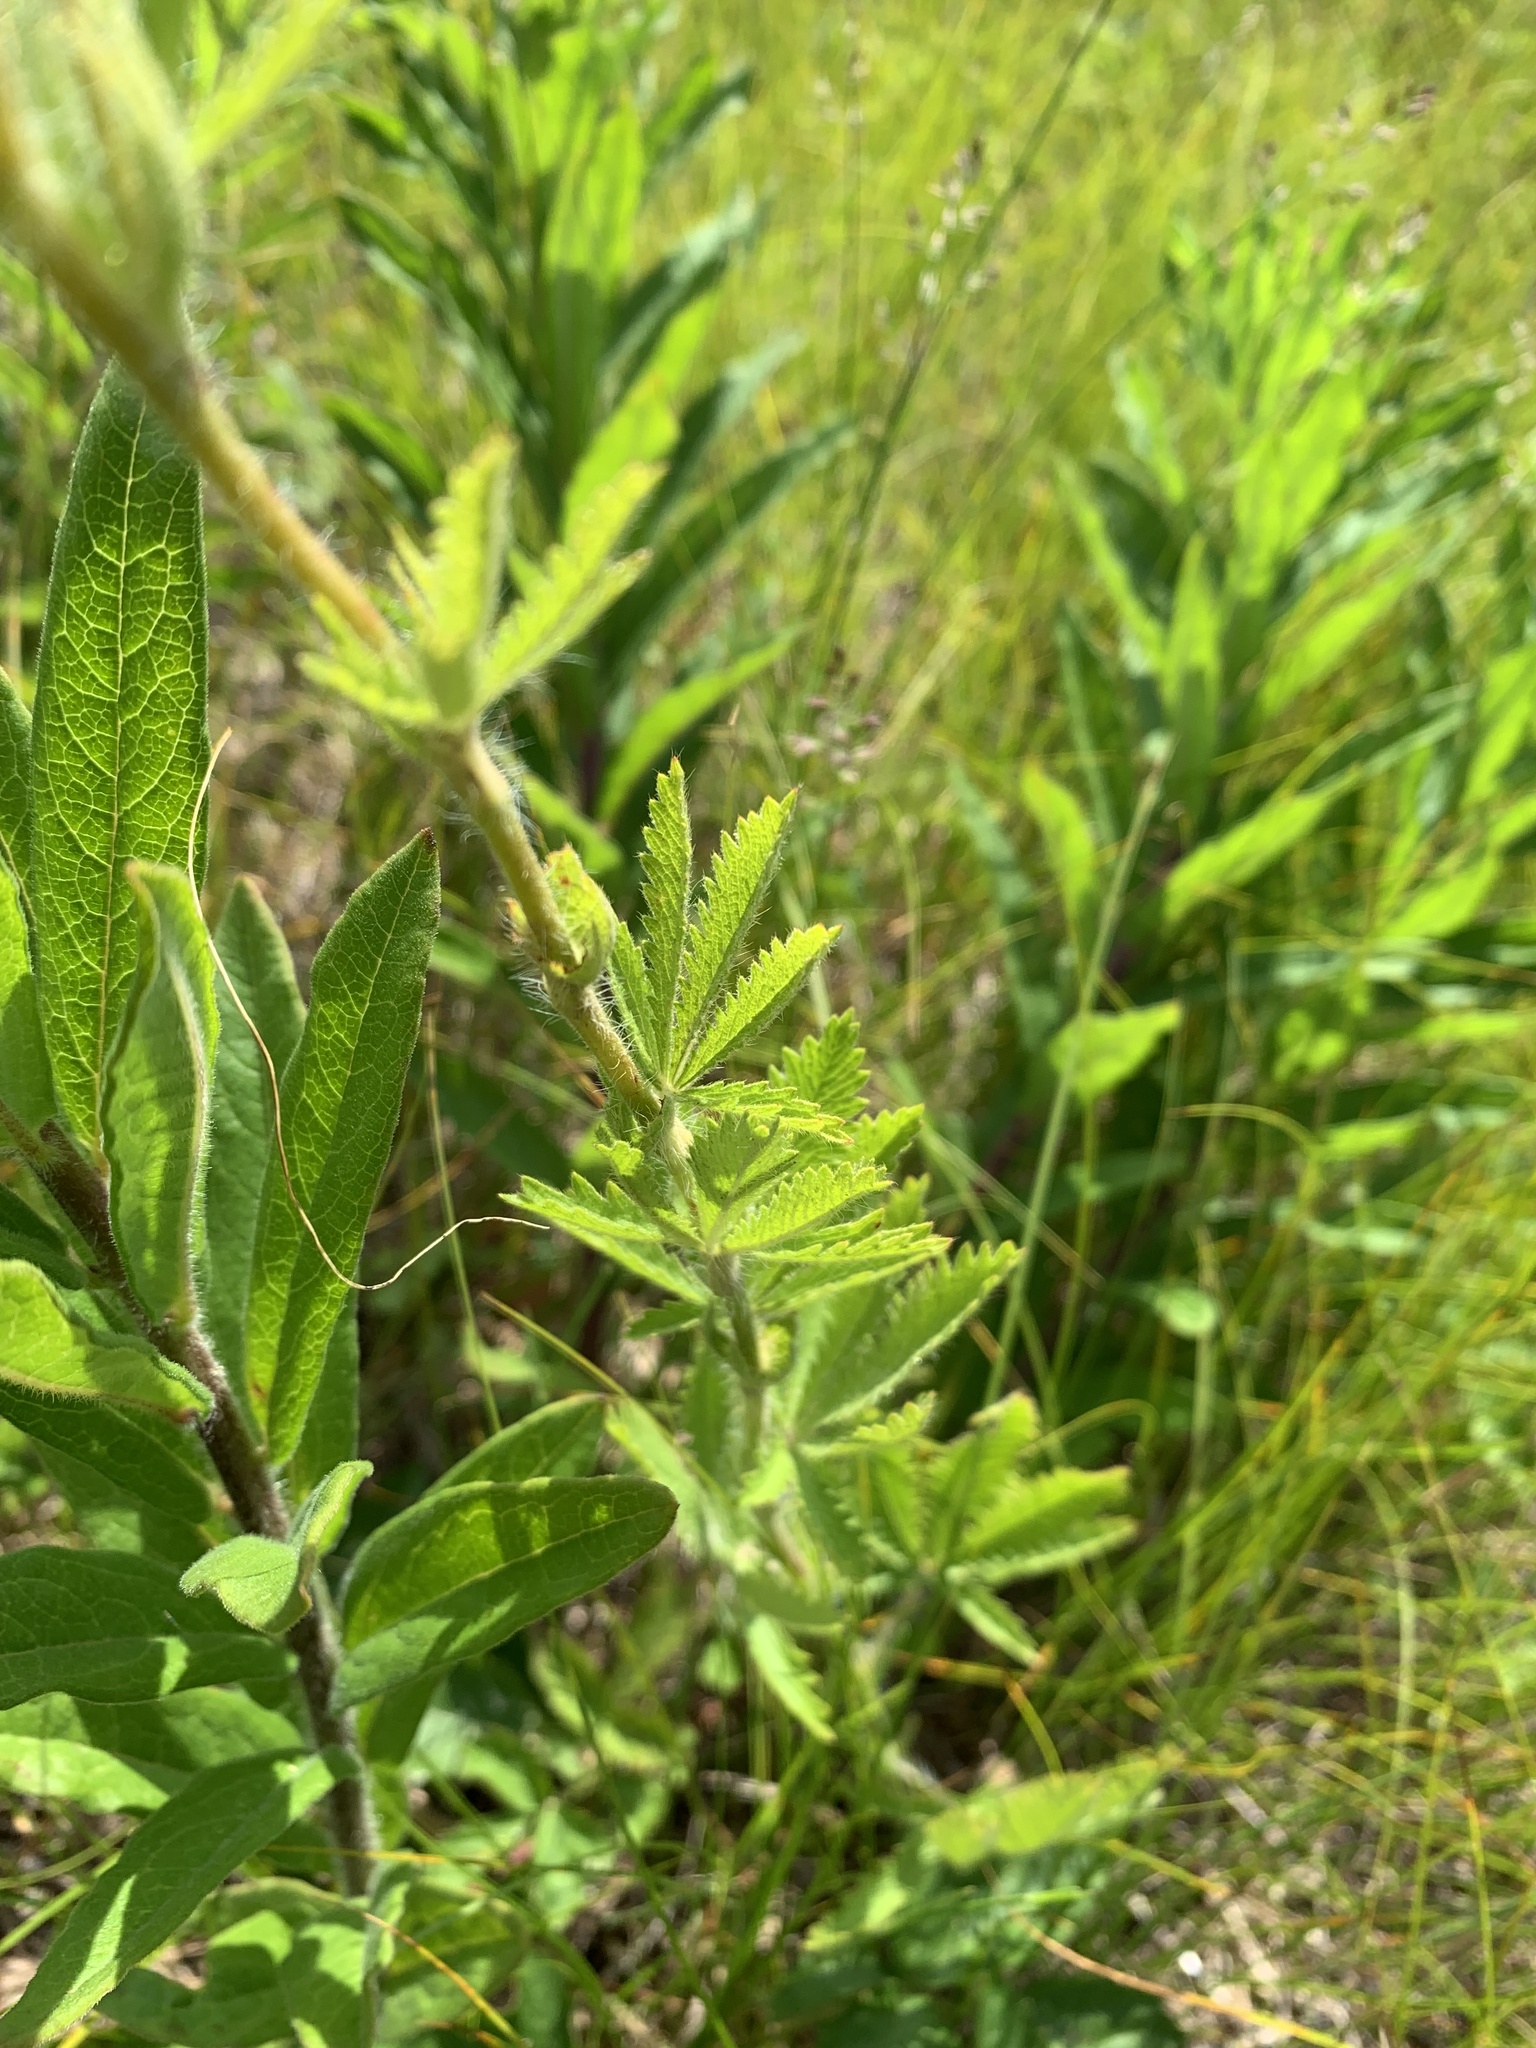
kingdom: Plantae
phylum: Tracheophyta
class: Magnoliopsida
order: Rosales
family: Rosaceae
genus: Potentilla
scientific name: Potentilla recta
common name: Sulphur cinquefoil
